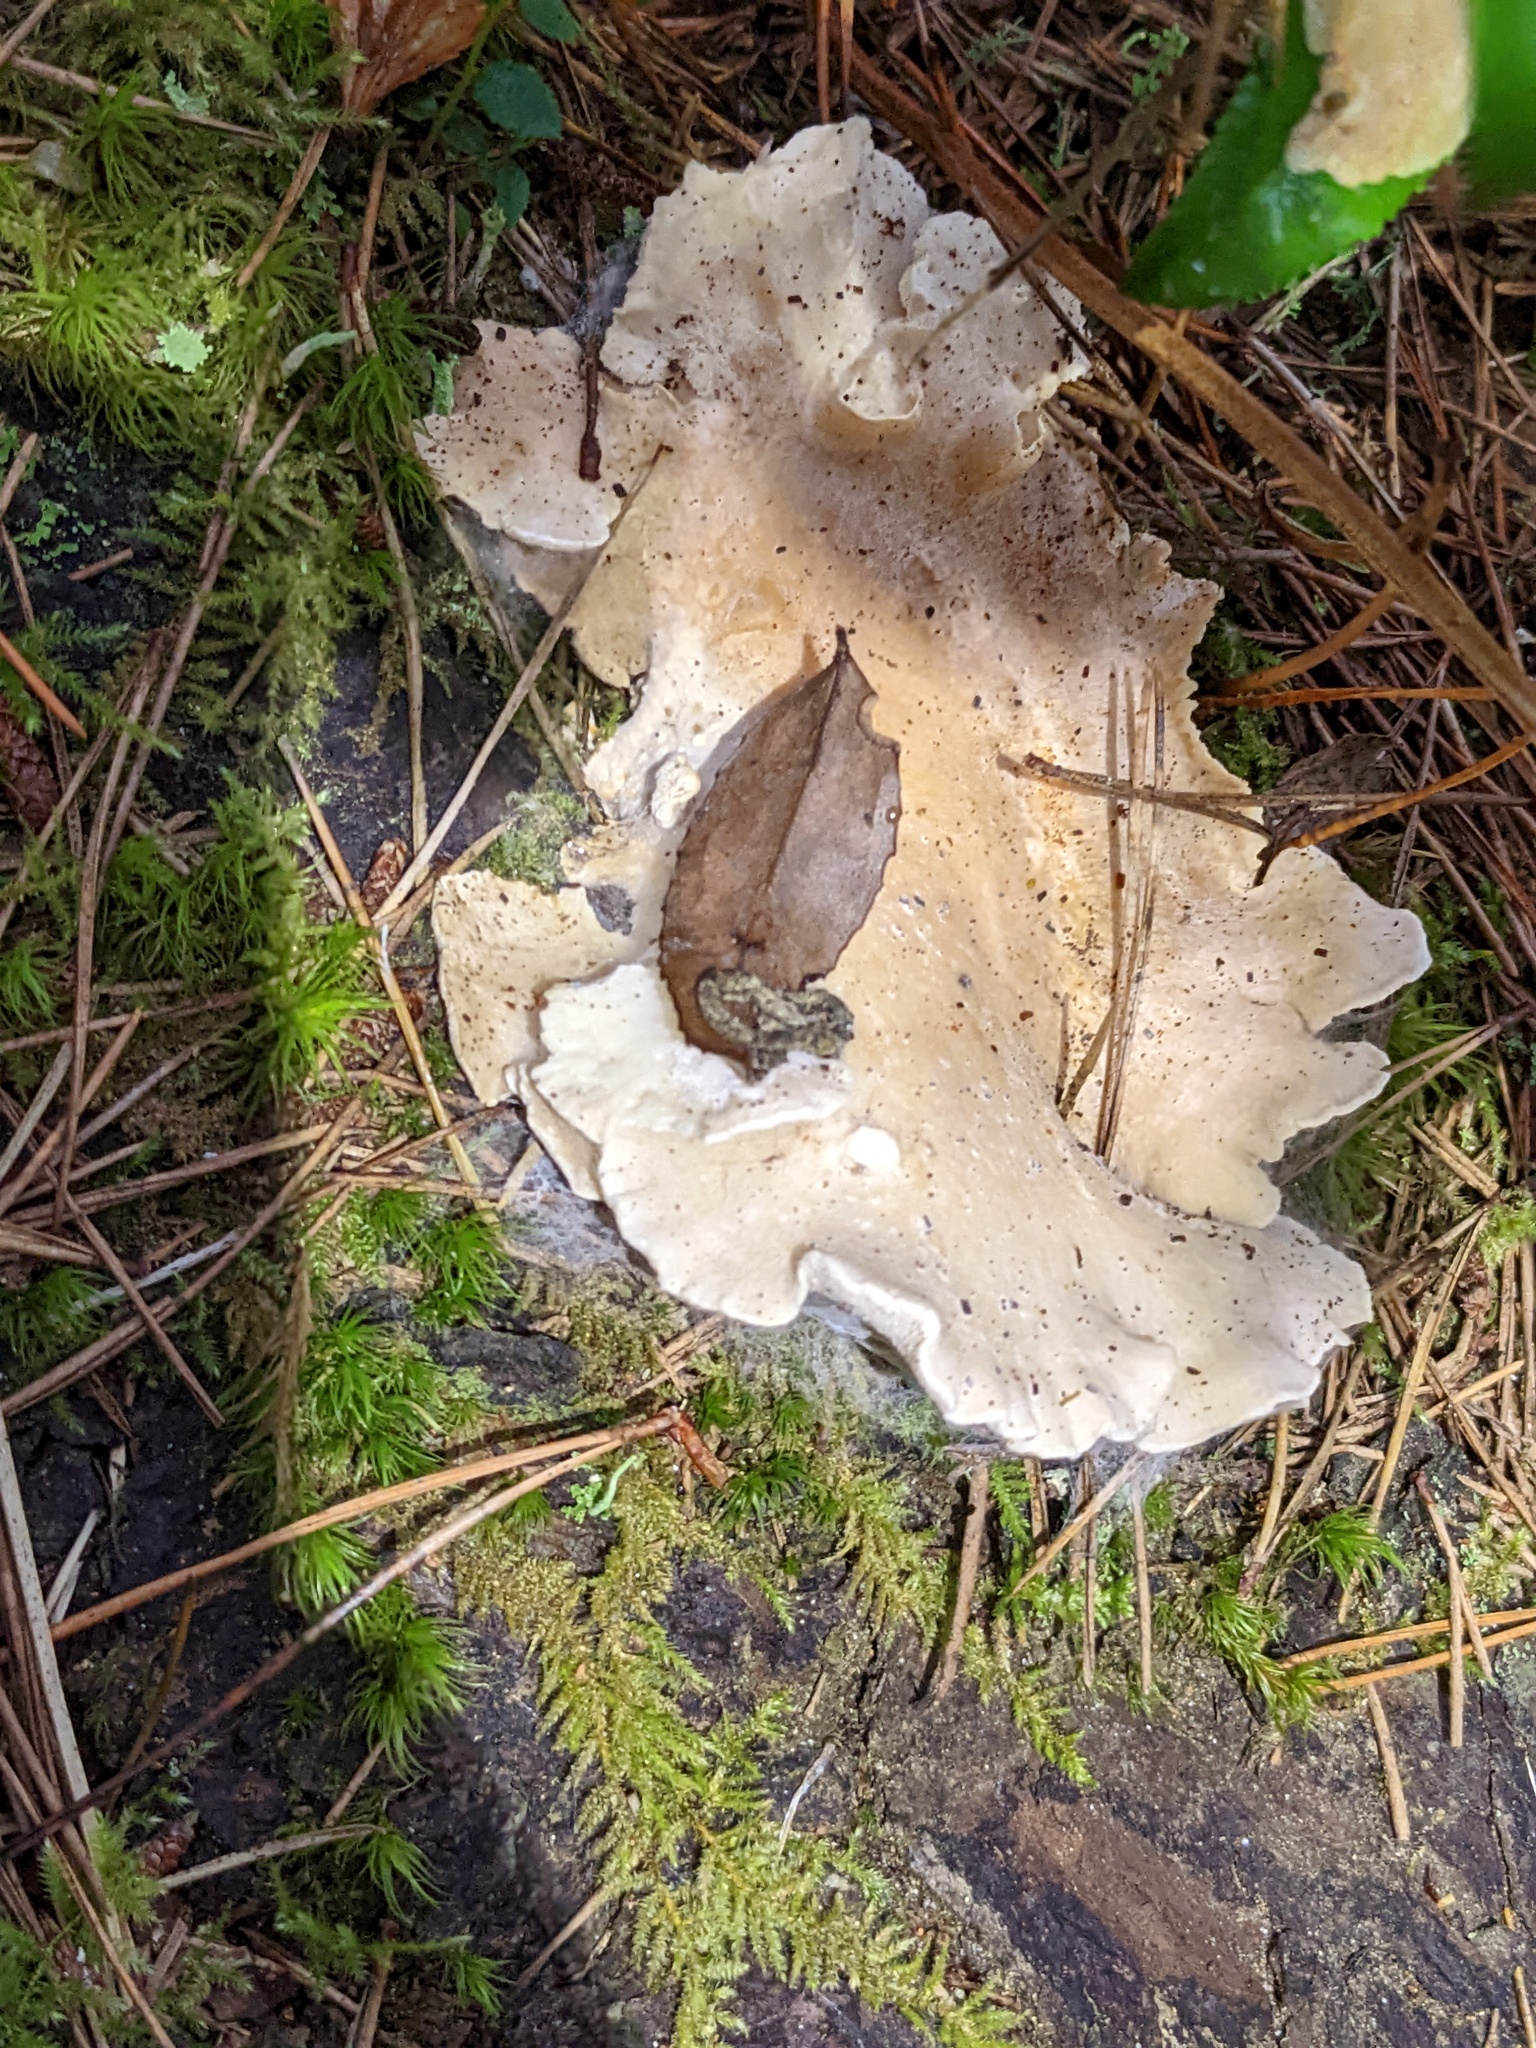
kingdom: Fungi
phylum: Basidiomycota
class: Agaricomycetes
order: Polyporales
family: Dacryobolaceae
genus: Osteina
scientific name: Osteina obducta
